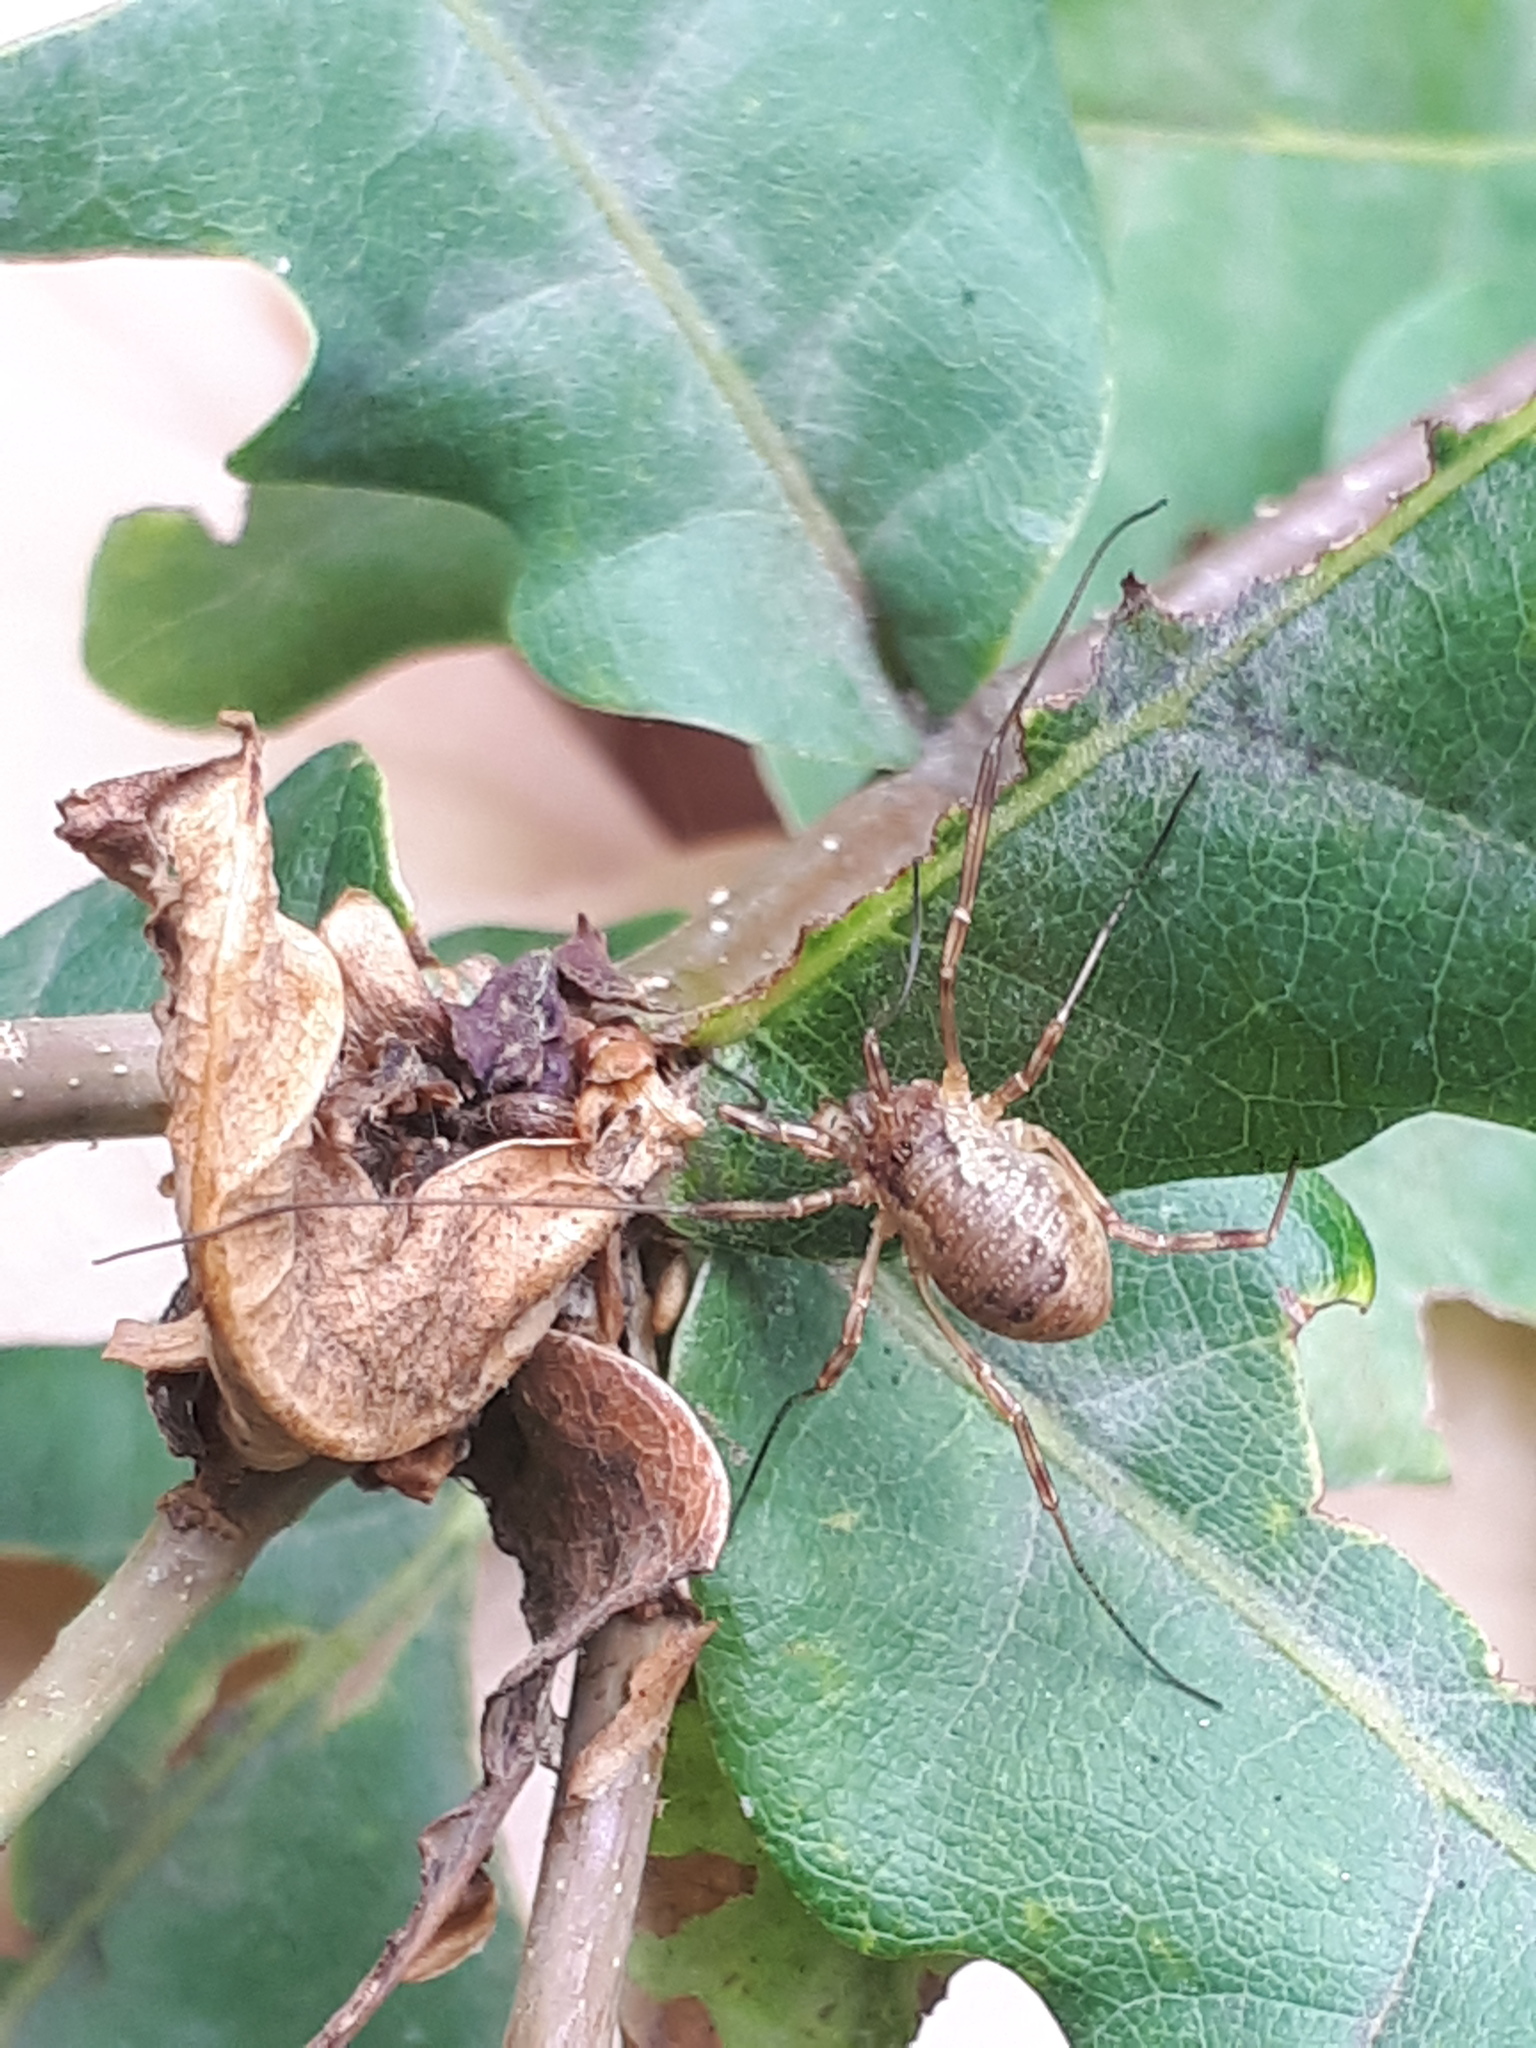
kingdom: Animalia
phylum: Arthropoda
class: Arachnida
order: Opiliones
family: Phalangiidae
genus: Oligolophus
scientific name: Oligolophus tridens
